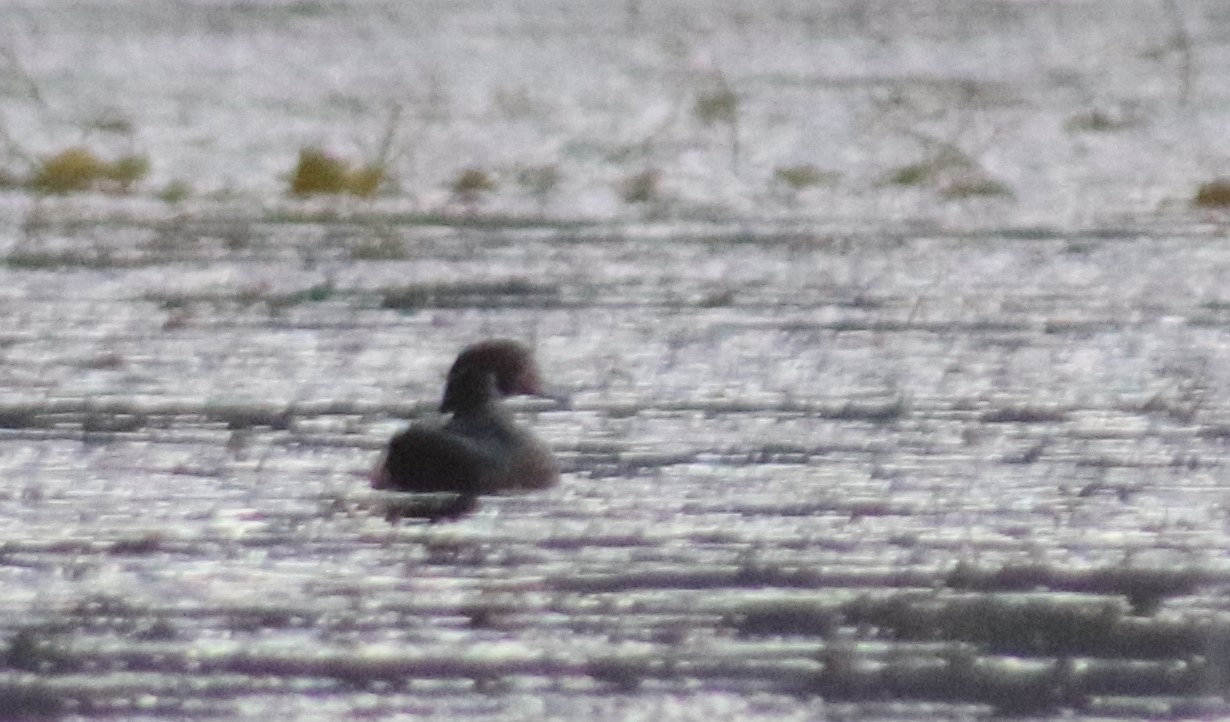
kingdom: Animalia
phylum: Chordata
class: Aves
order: Anseriformes
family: Anatidae
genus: Aix
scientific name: Aix sponsa
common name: Wood duck
